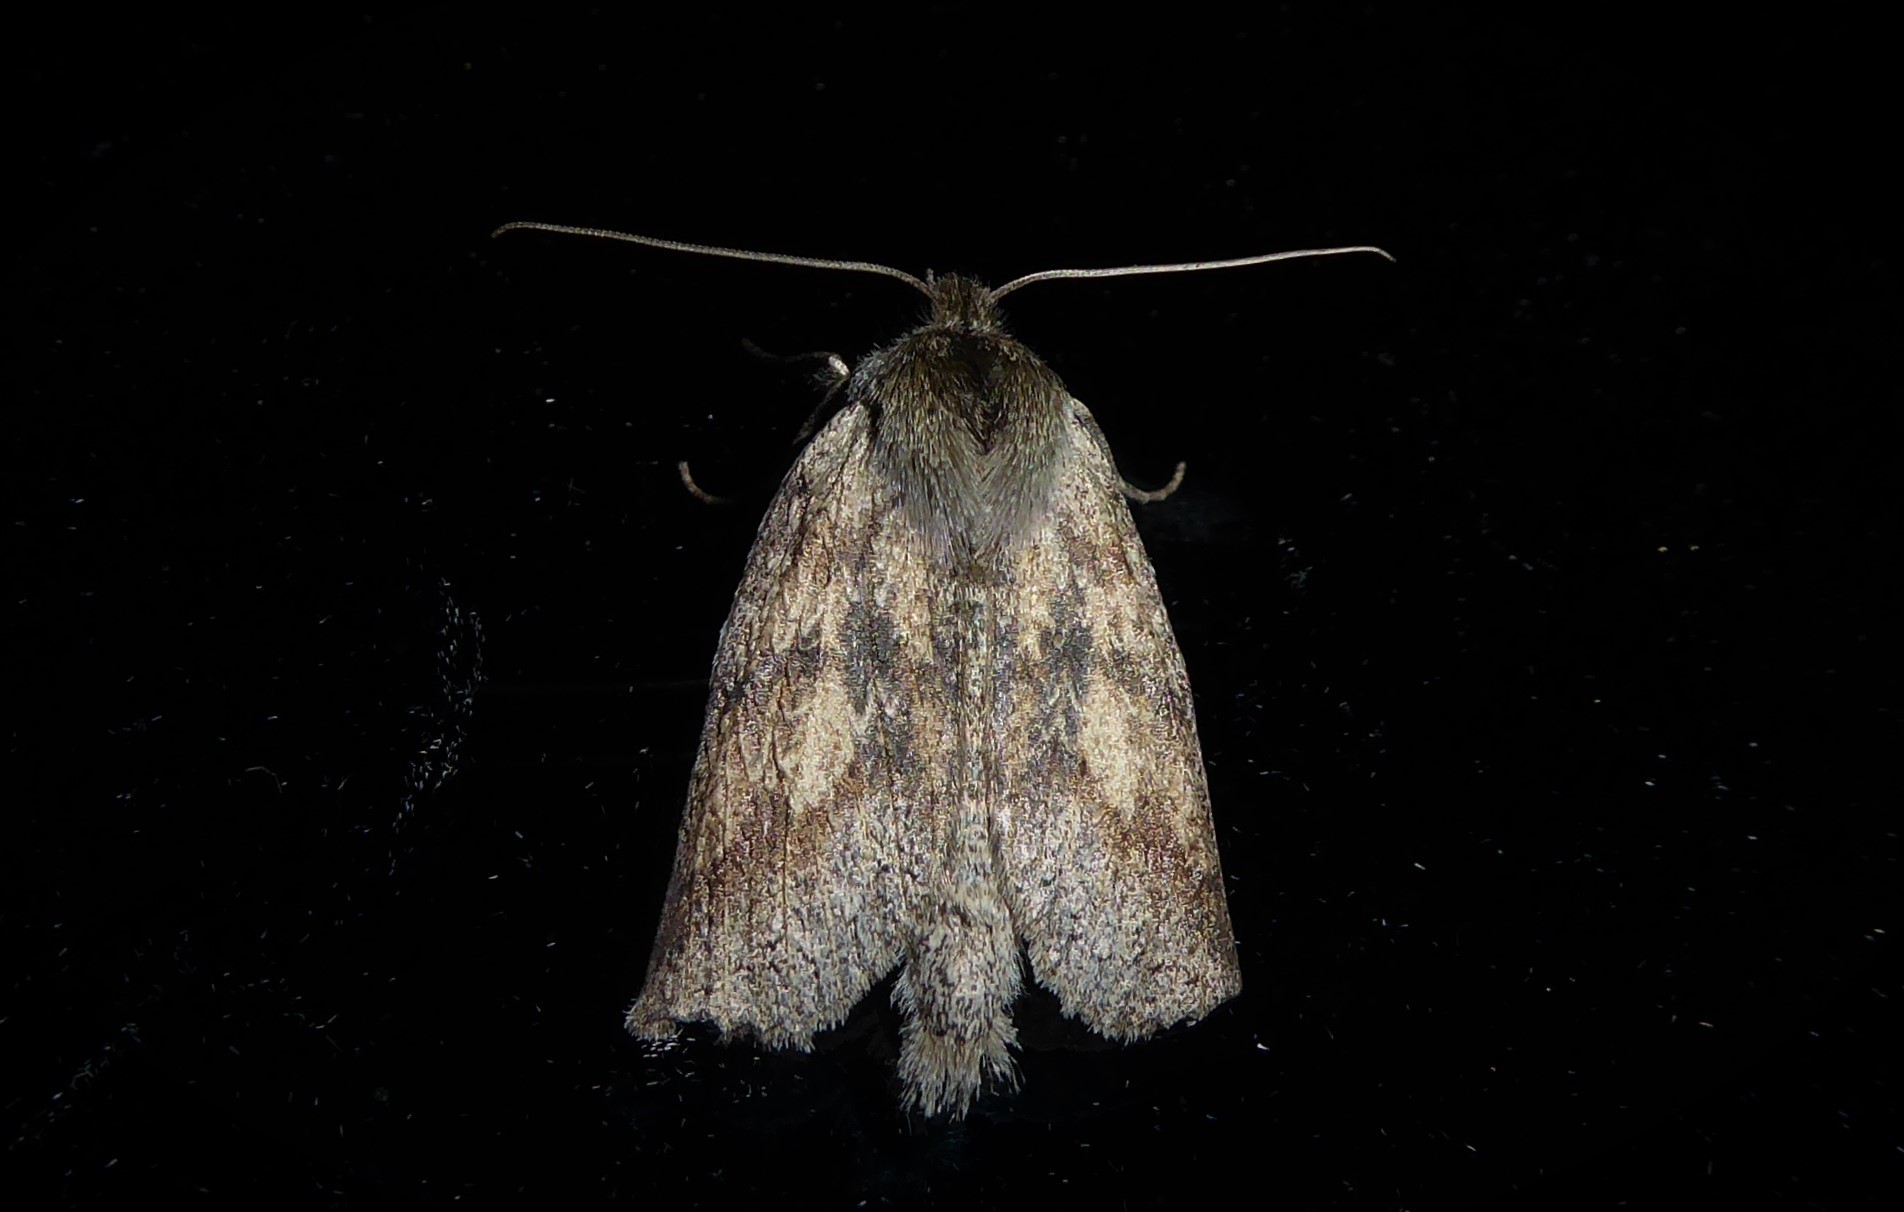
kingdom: Animalia
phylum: Arthropoda
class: Insecta
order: Lepidoptera
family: Geometridae
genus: Declana
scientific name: Declana leptomera
